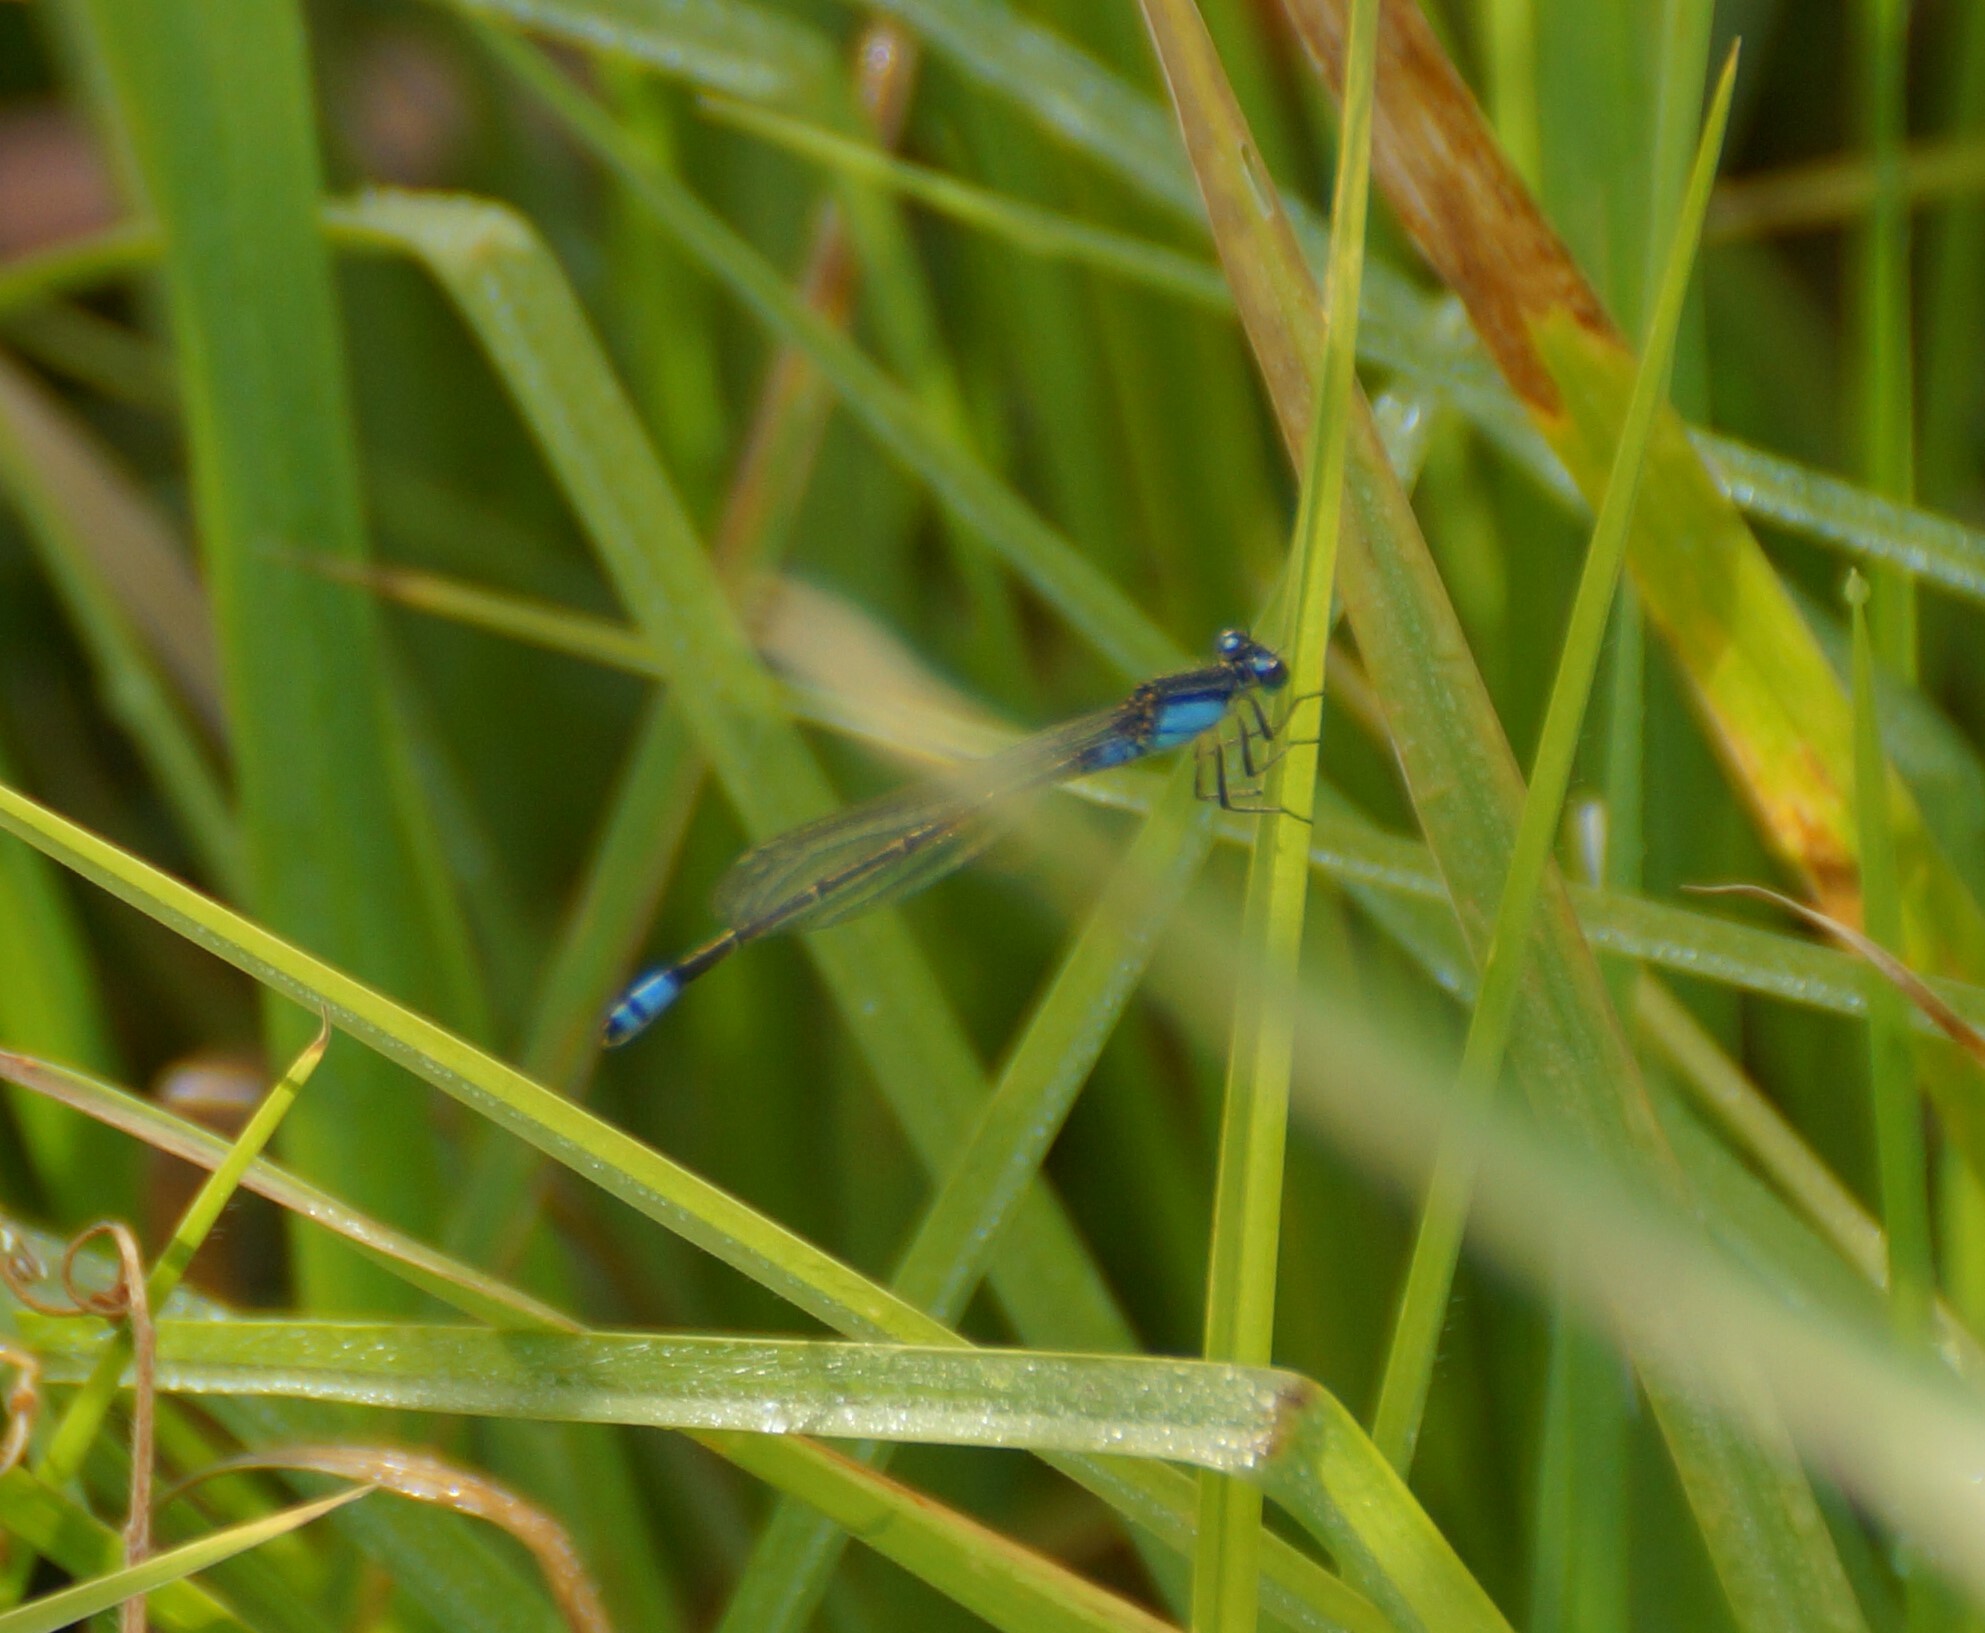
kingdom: Animalia
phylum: Arthropoda
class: Insecta
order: Odonata
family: Coenagrionidae
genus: Ischnura
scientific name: Ischnura heterosticta
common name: Common bluetail
